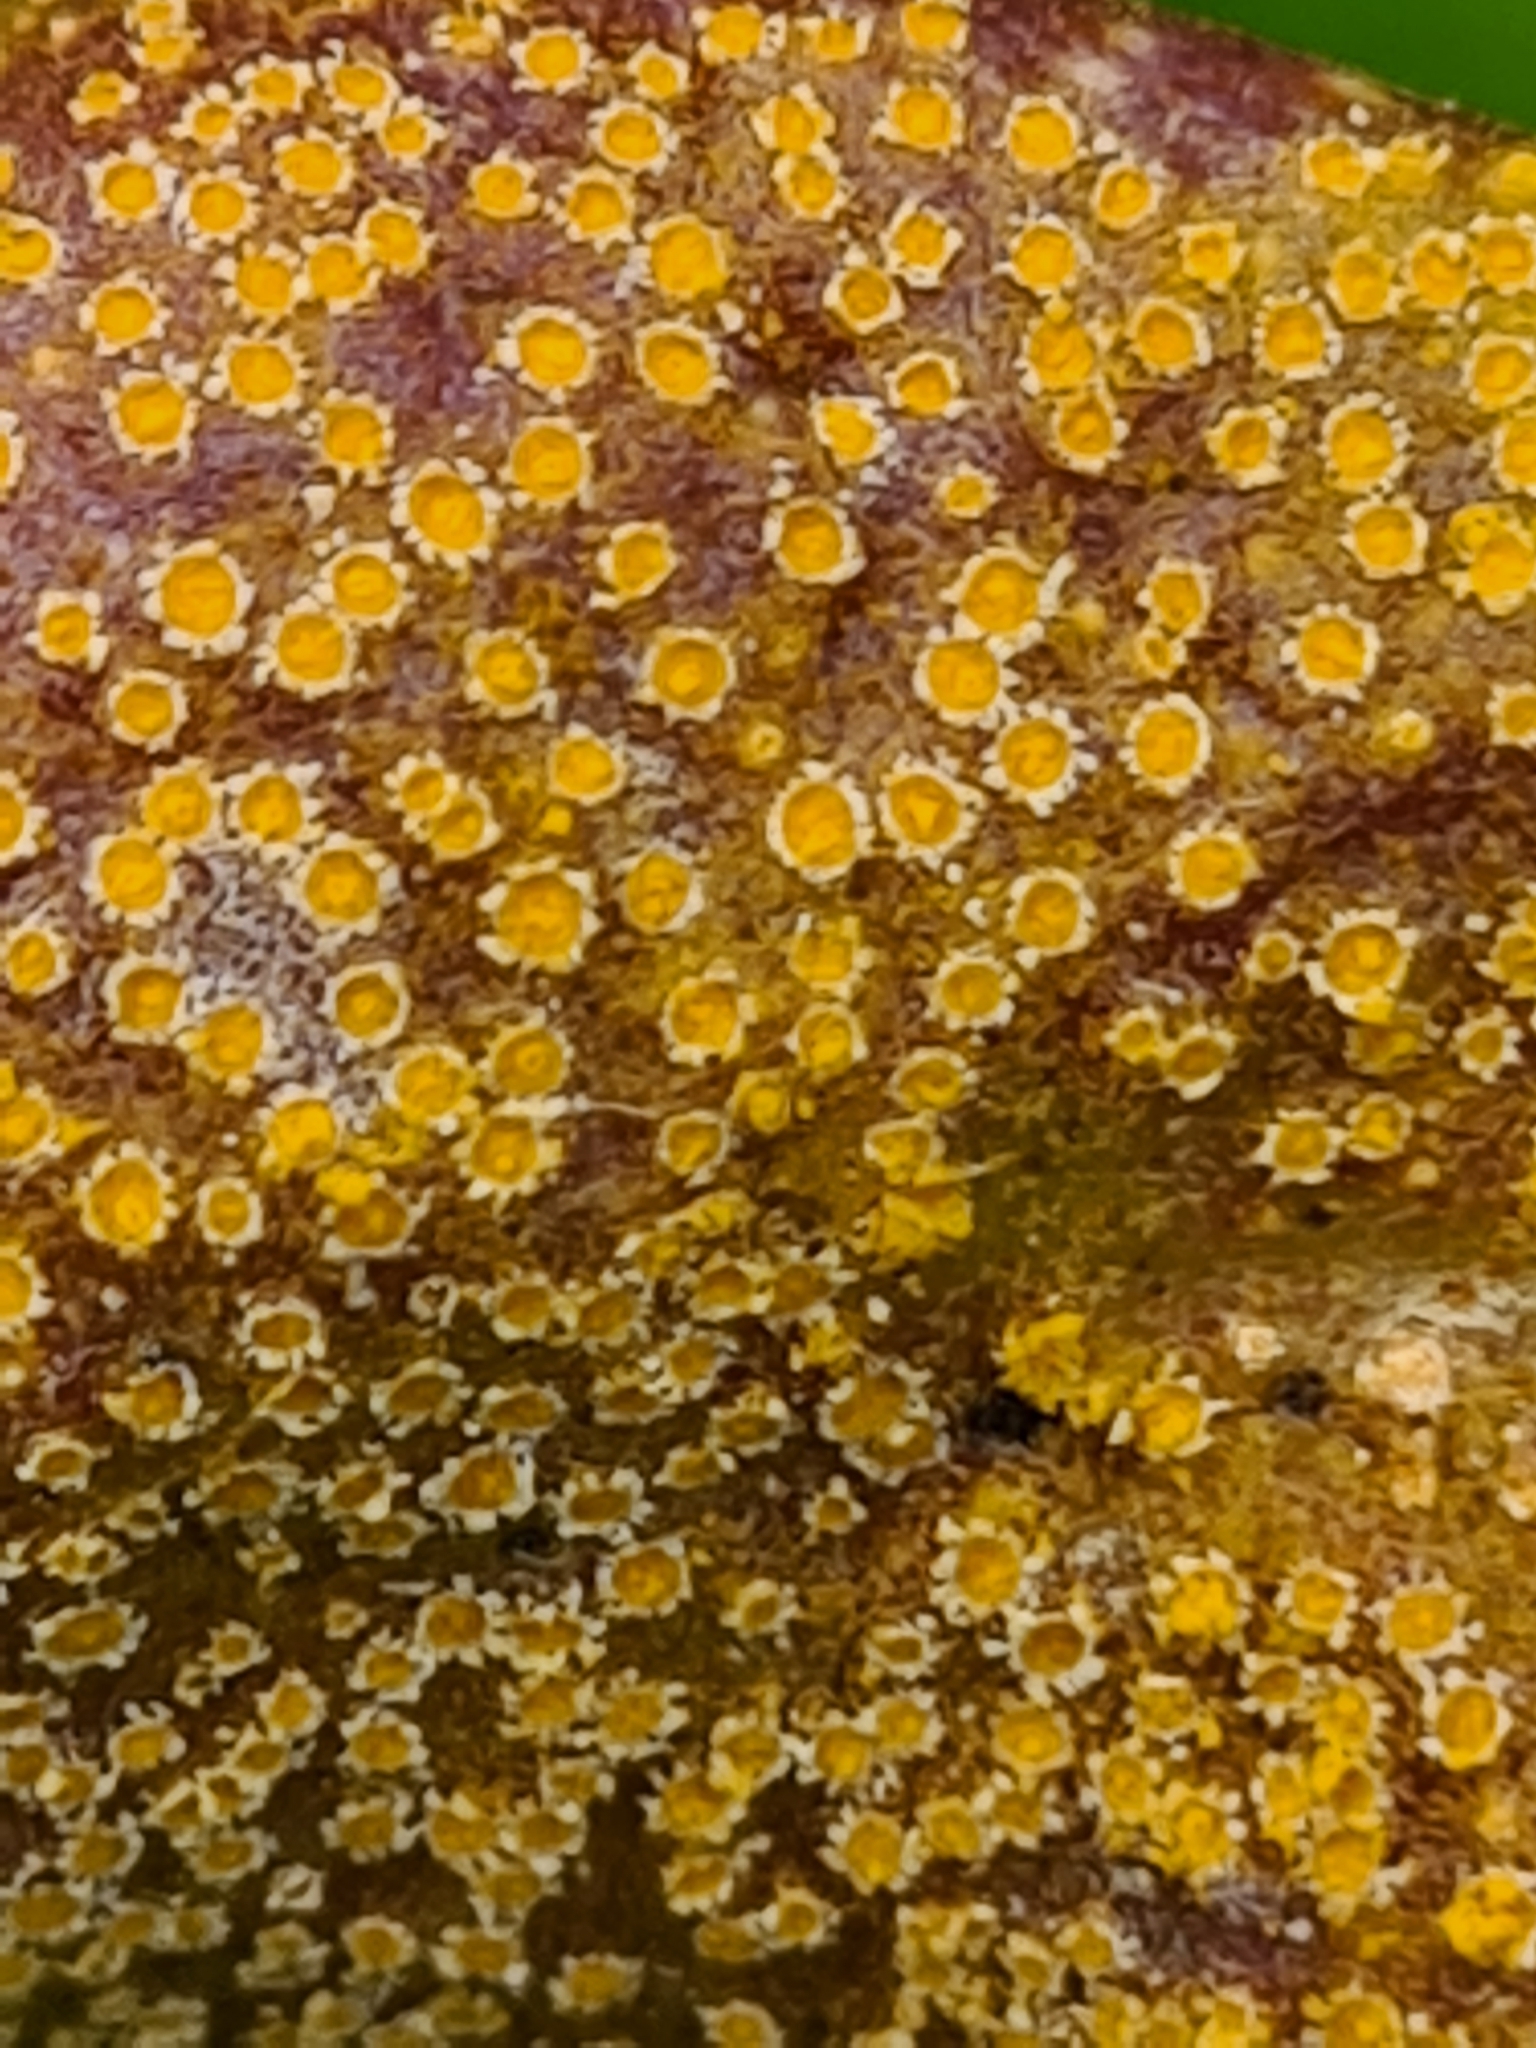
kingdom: Fungi
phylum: Basidiomycota
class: Pucciniomycetes
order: Pucciniales
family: Pucciniaceae
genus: Puccinia
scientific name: Puccinia clematidis
